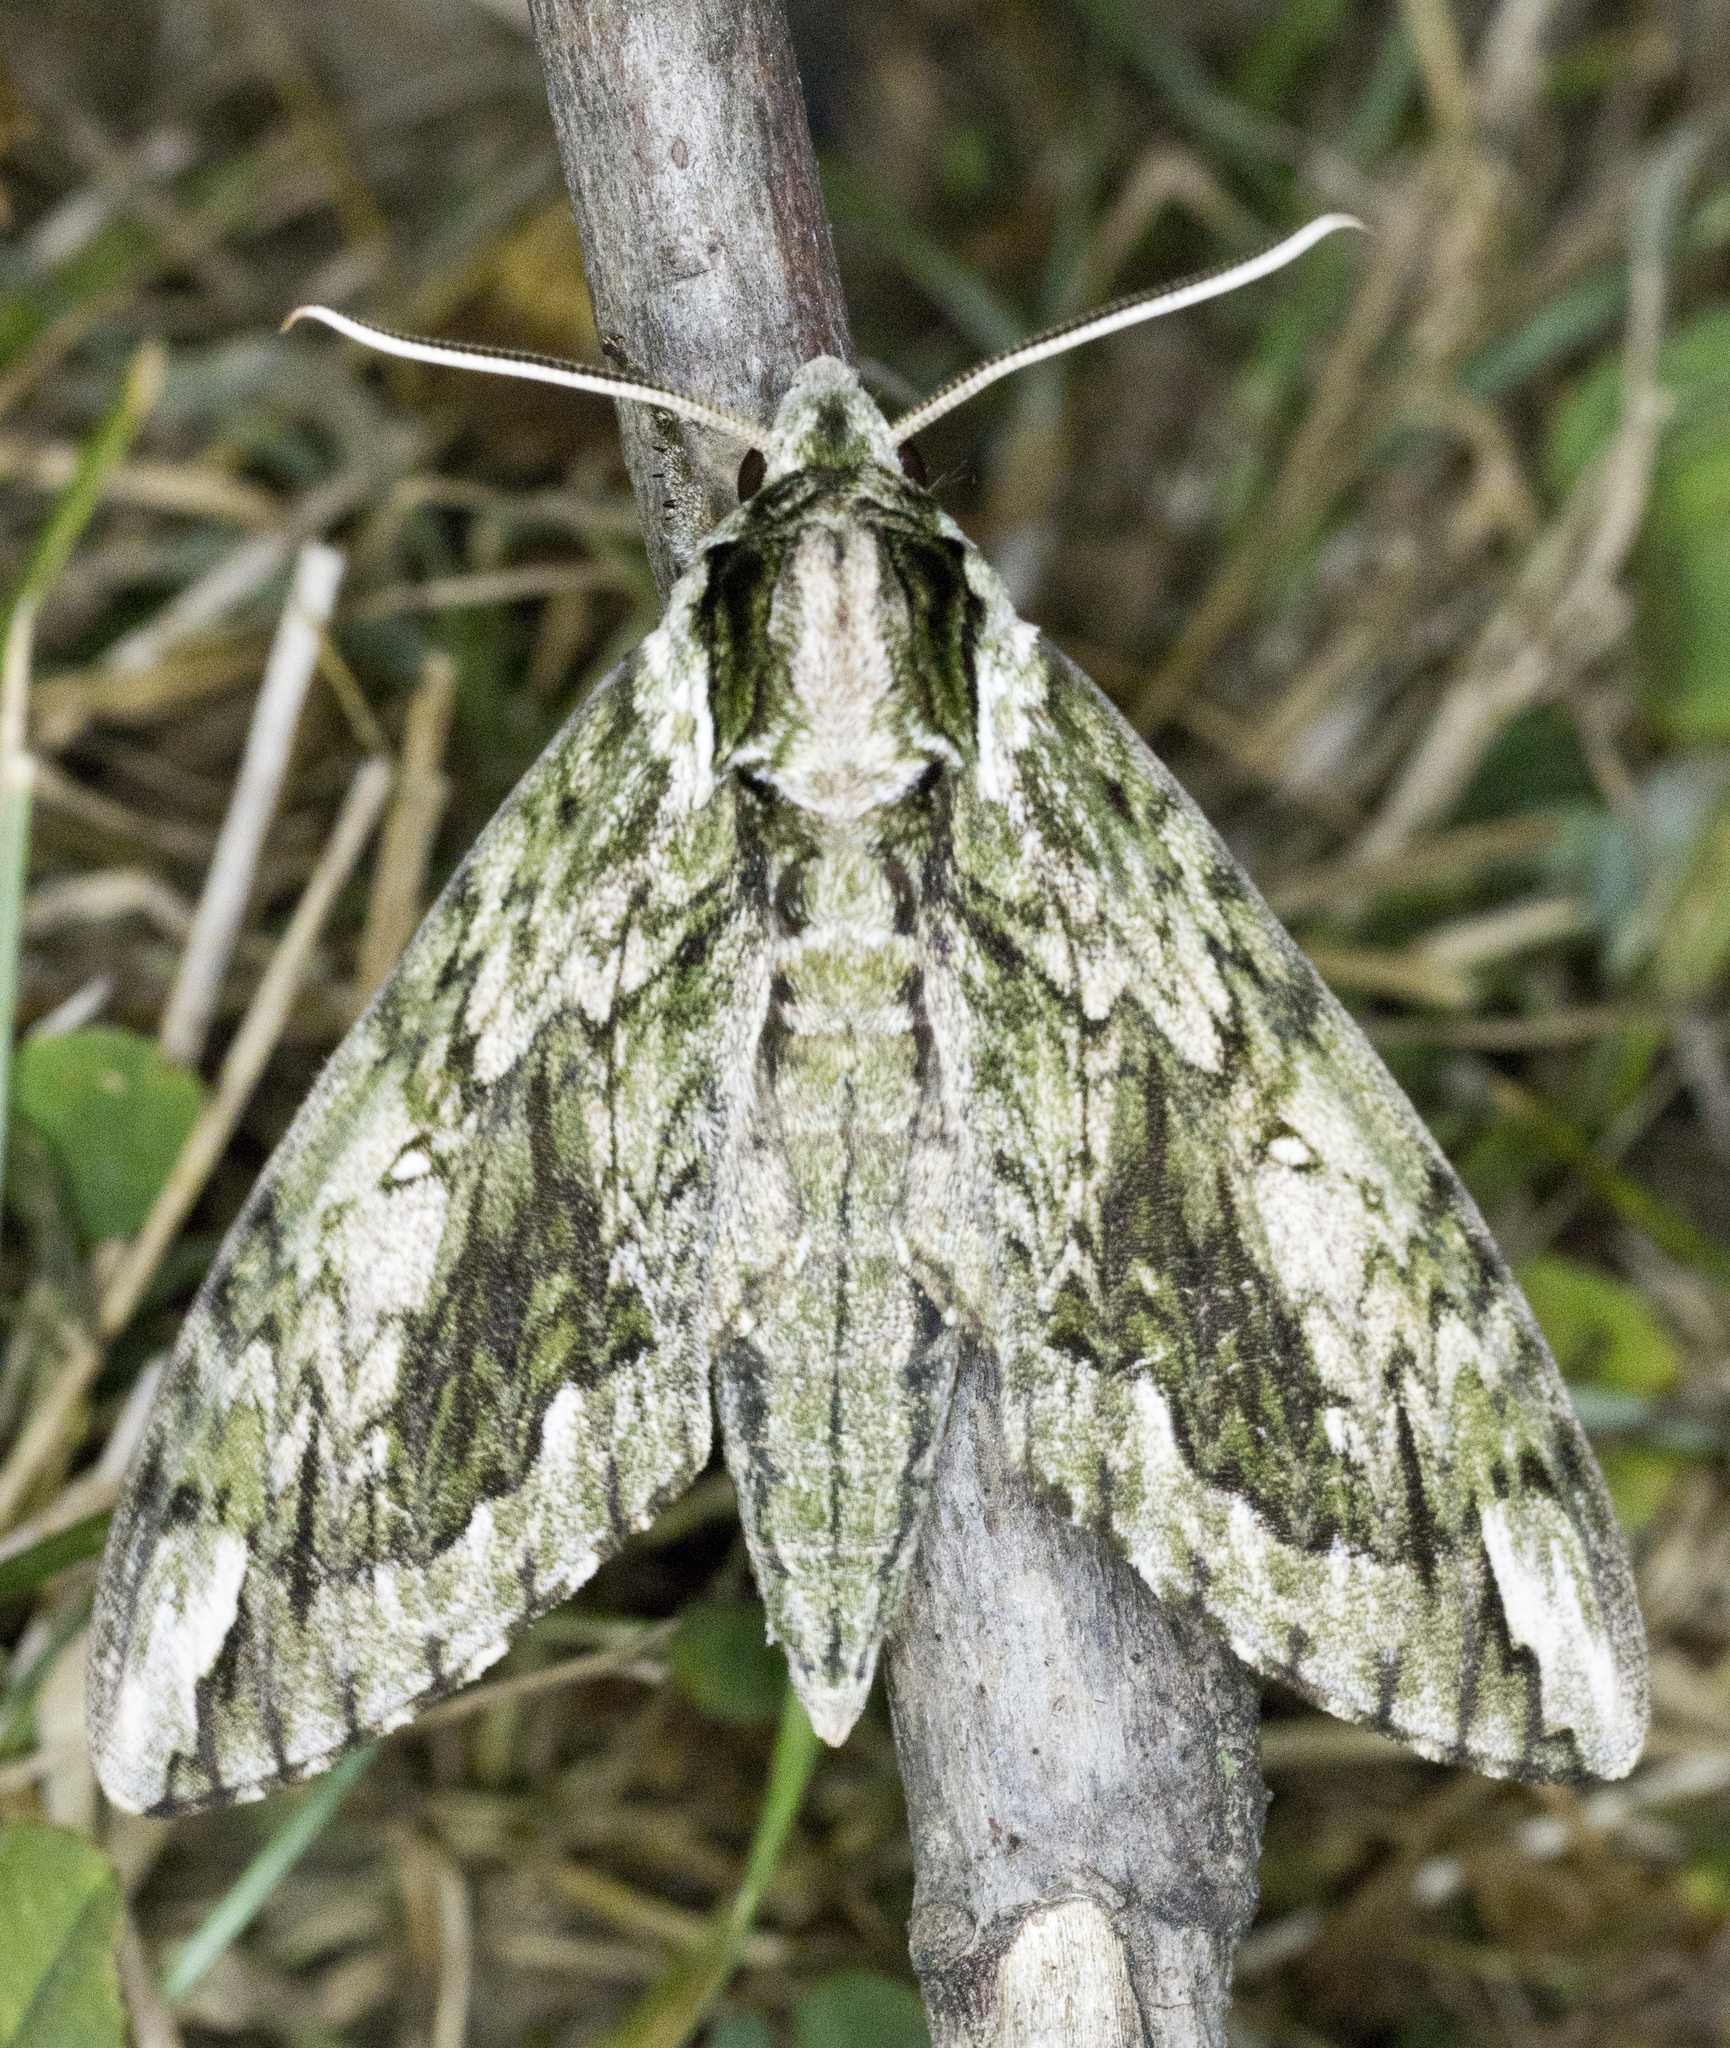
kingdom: Animalia
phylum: Arthropoda
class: Insecta
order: Lepidoptera
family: Sphingidae
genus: Ceratomia
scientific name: Ceratomia hageni
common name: Hagen's sphinx
